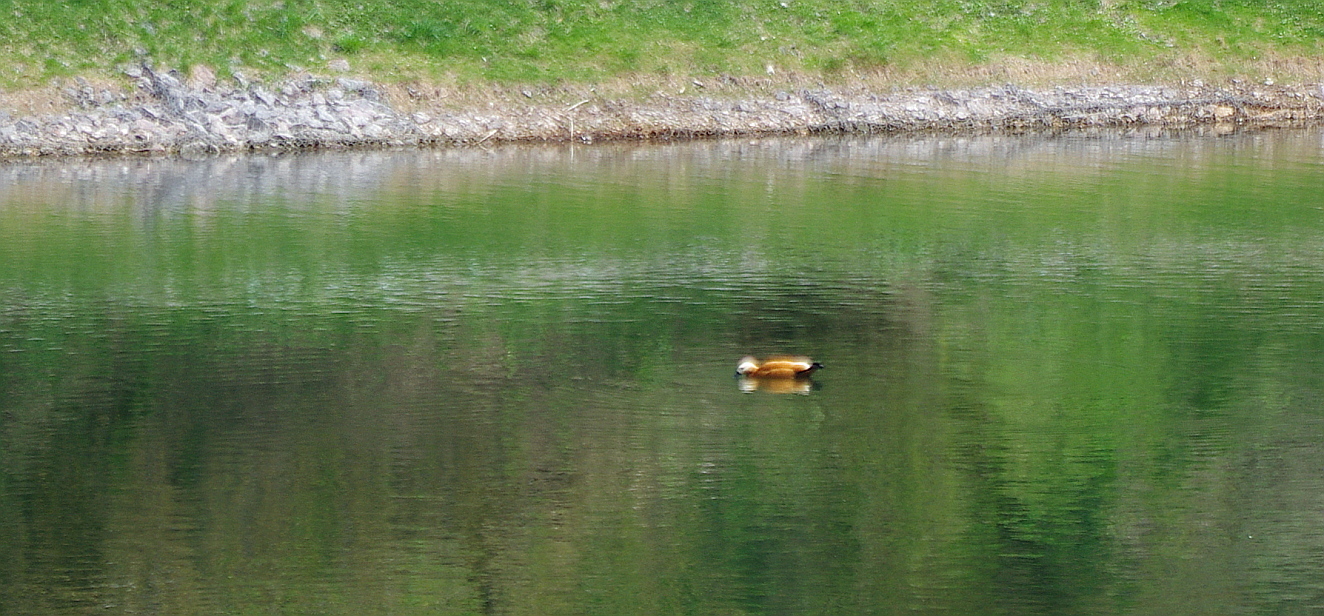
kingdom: Animalia
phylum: Chordata
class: Aves
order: Anseriformes
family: Anatidae
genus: Tadorna
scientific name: Tadorna ferruginea
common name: Ruddy shelduck
